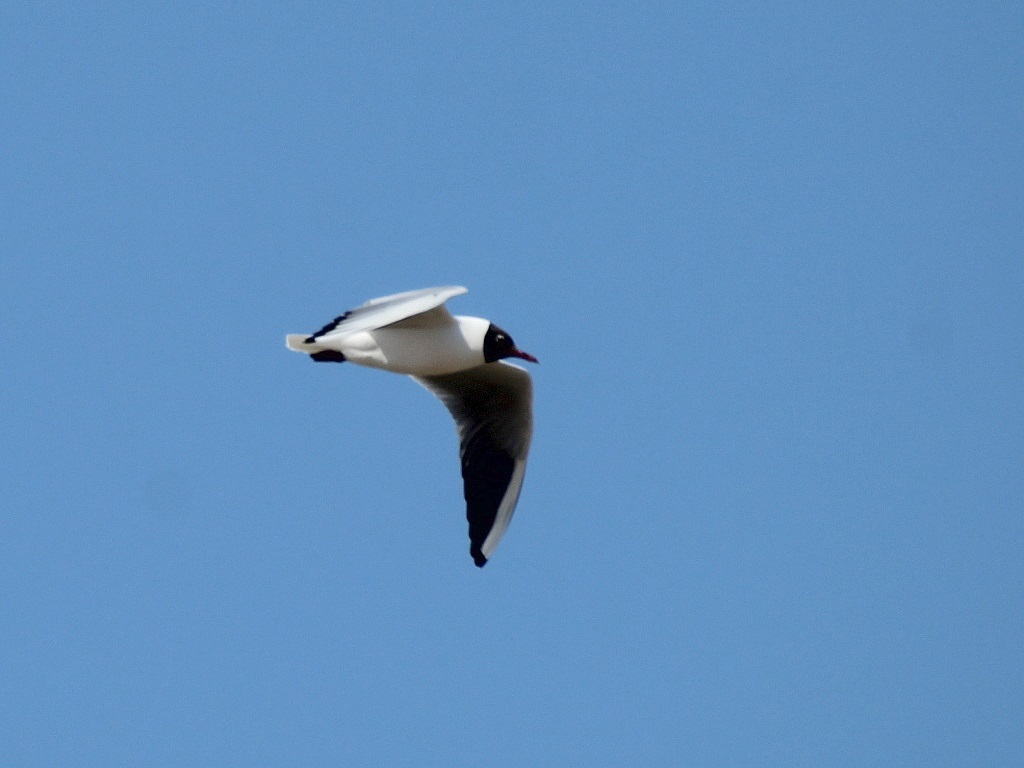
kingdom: Animalia
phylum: Chordata
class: Aves
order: Charadriiformes
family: Laridae
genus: Chroicocephalus
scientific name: Chroicocephalus ridibundus
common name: Black-headed gull
